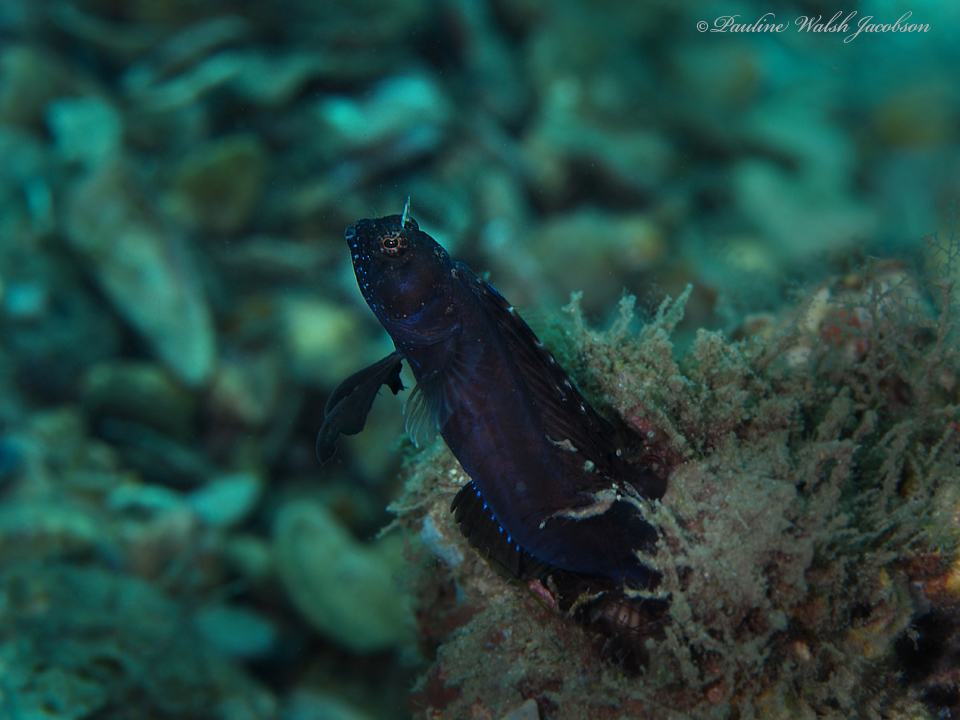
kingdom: Animalia
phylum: Chordata
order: Perciformes
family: Chaenopsidae
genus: Emblemaria
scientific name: Emblemaria pandionis
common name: Sailfin blenny
